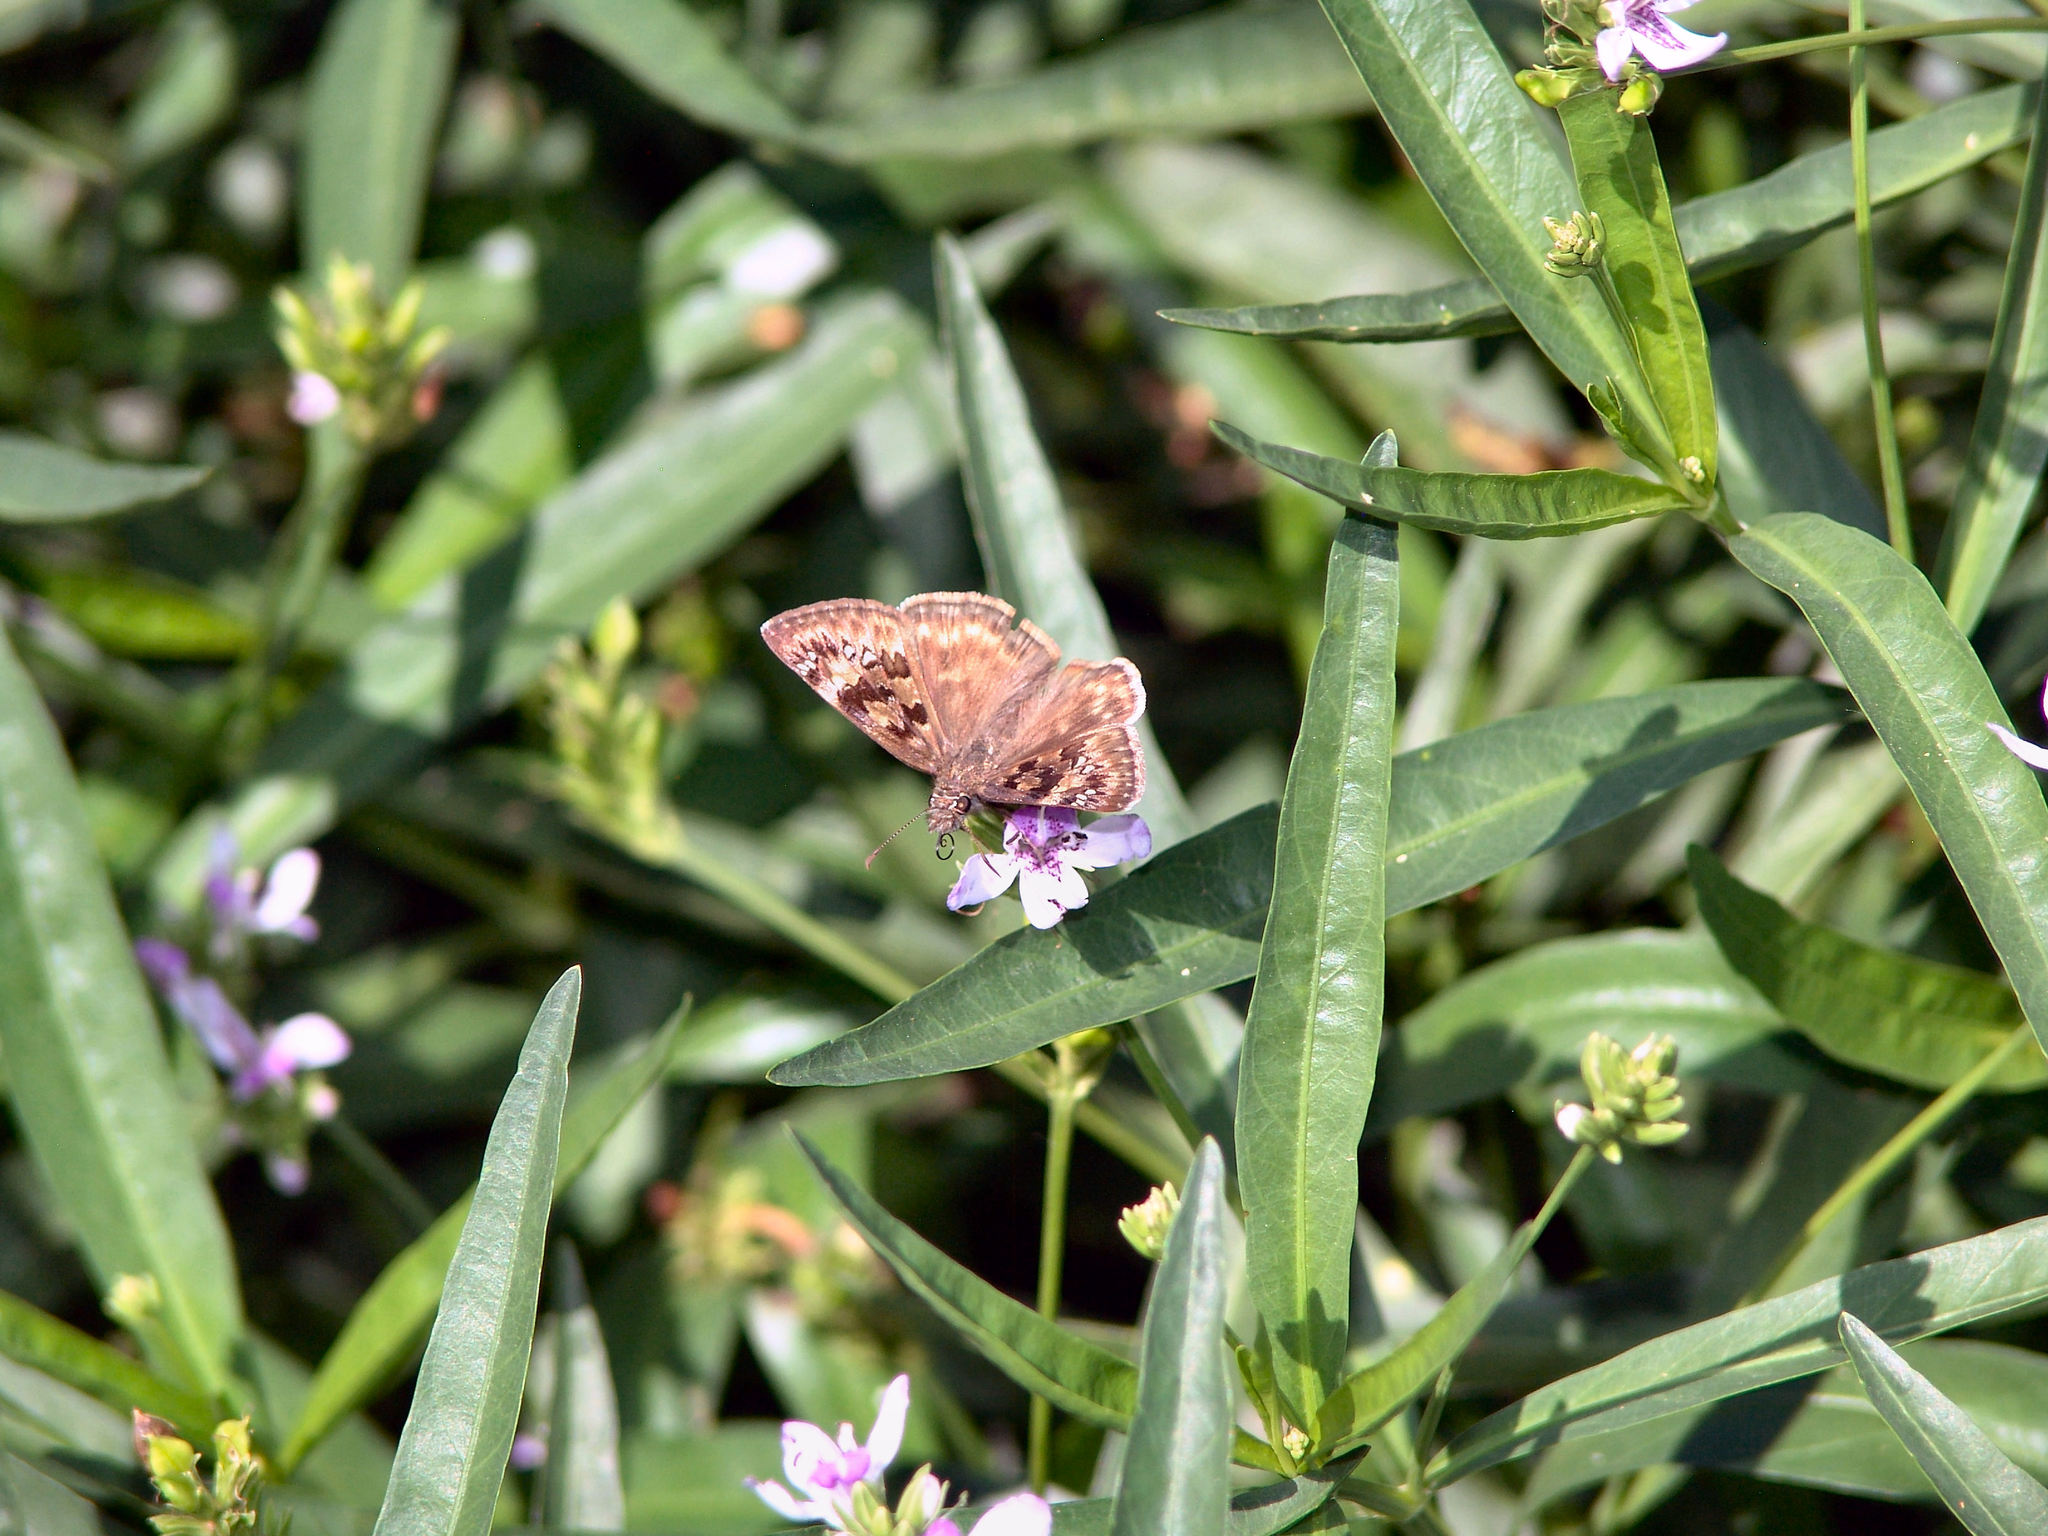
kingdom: Animalia
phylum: Arthropoda
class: Insecta
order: Lepidoptera
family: Hesperiidae
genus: Erynnis
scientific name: Erynnis horatius
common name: Horace's duskywing
